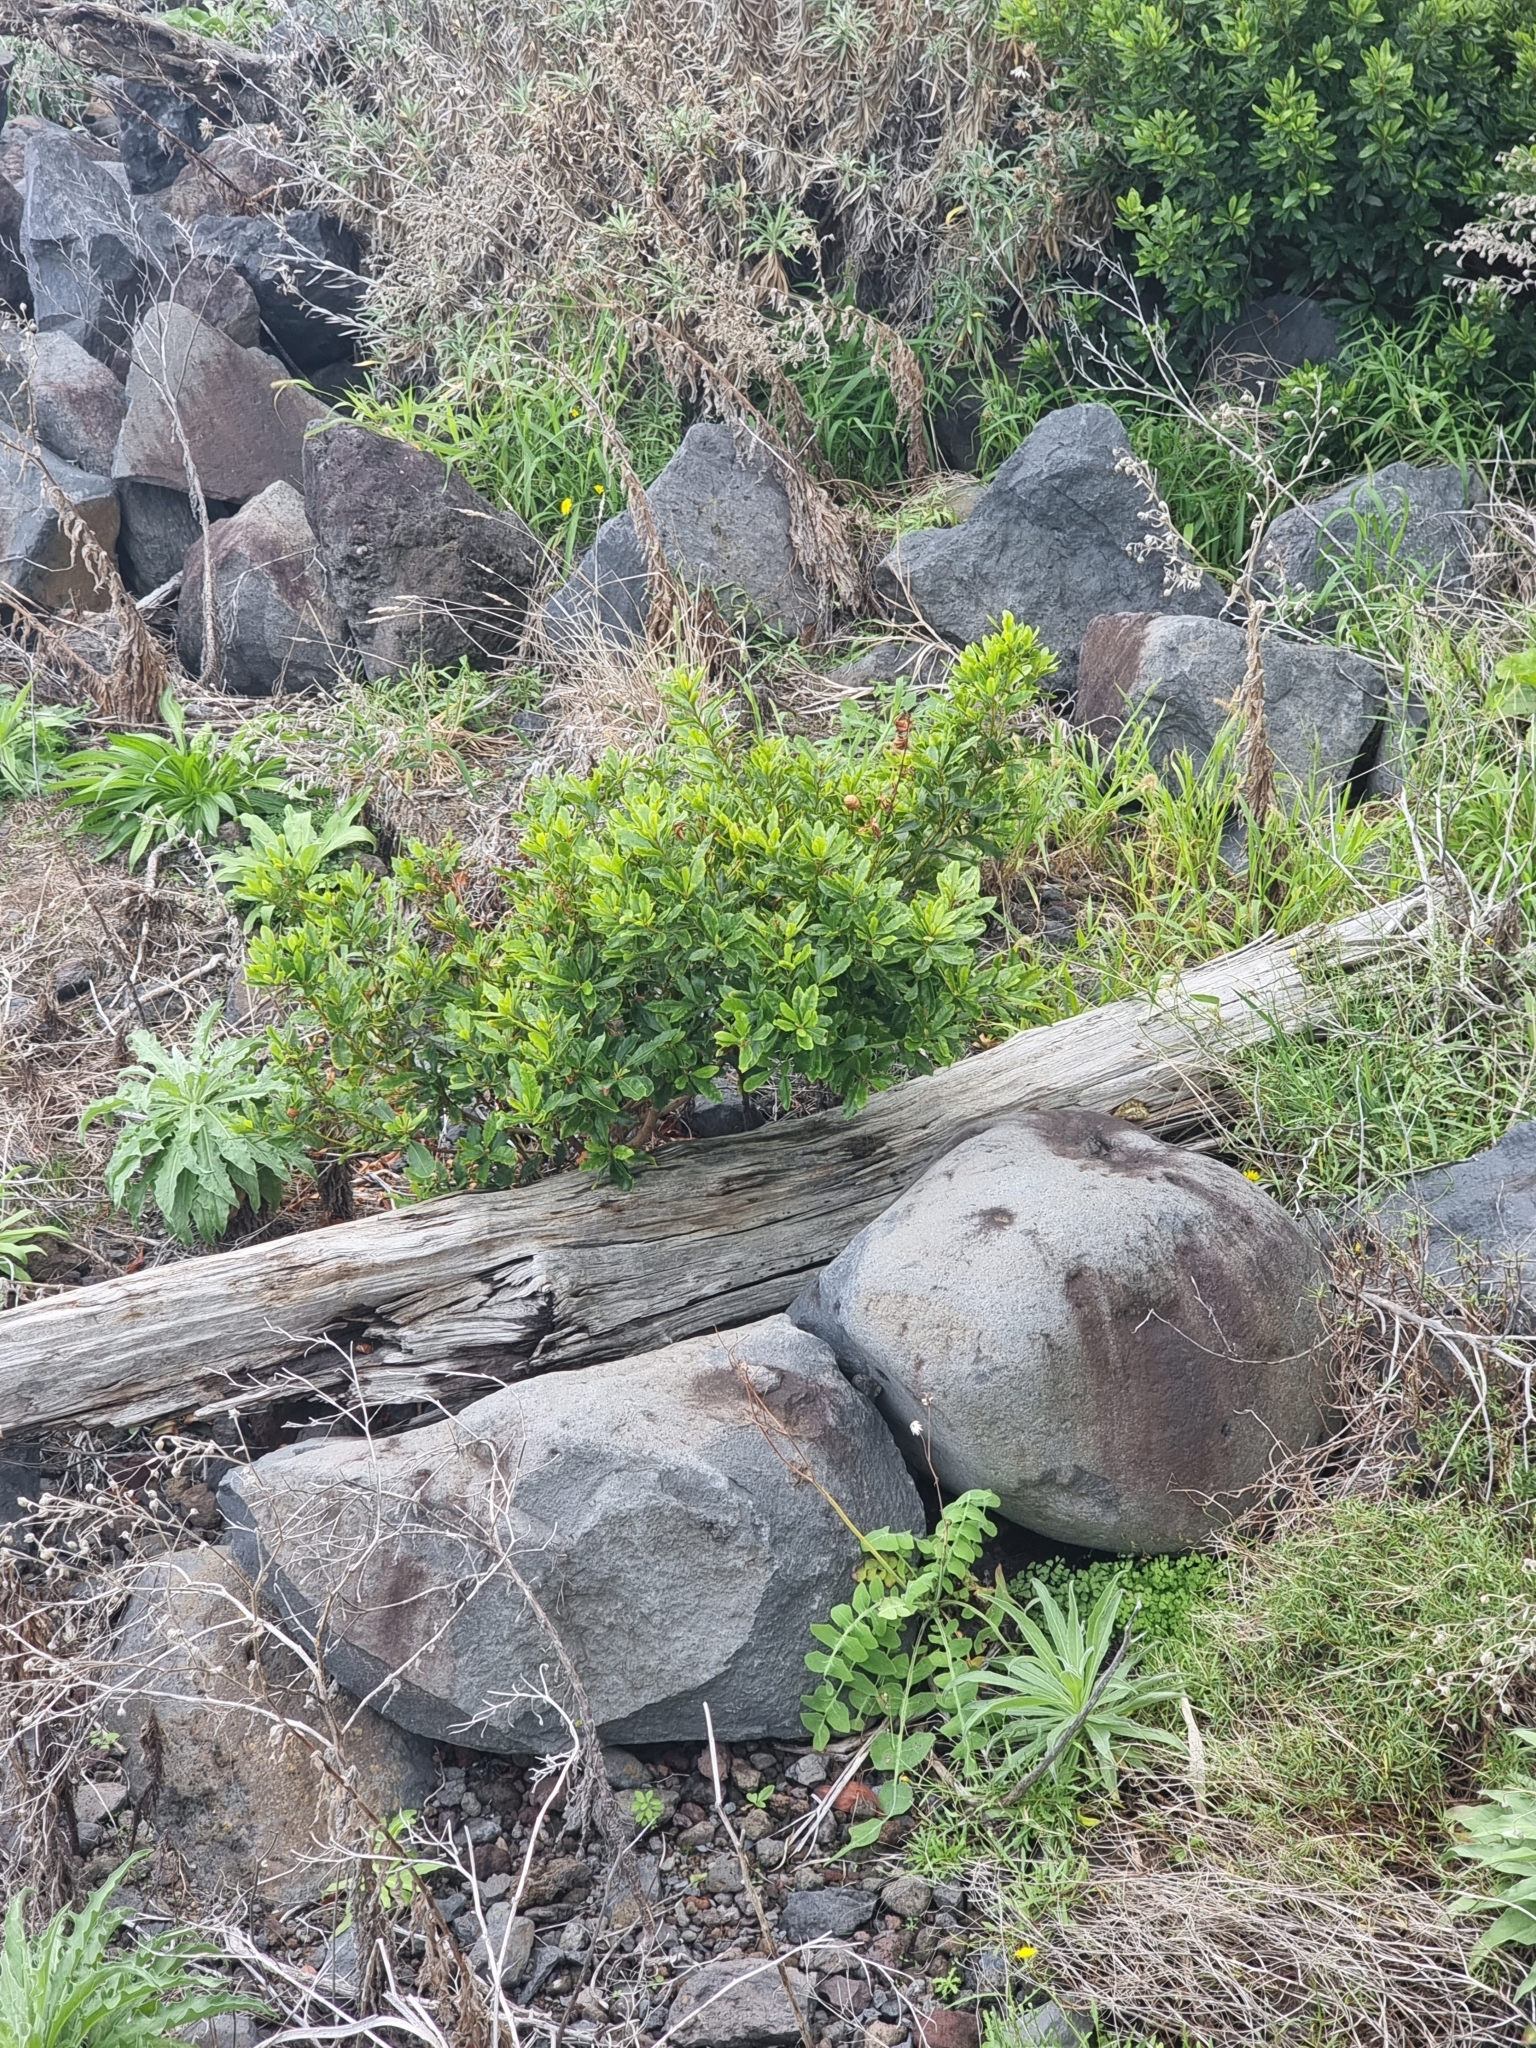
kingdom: Plantae
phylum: Tracheophyta
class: Magnoliopsida
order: Fagales
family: Myricaceae
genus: Morella
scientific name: Morella faya
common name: Firetree
